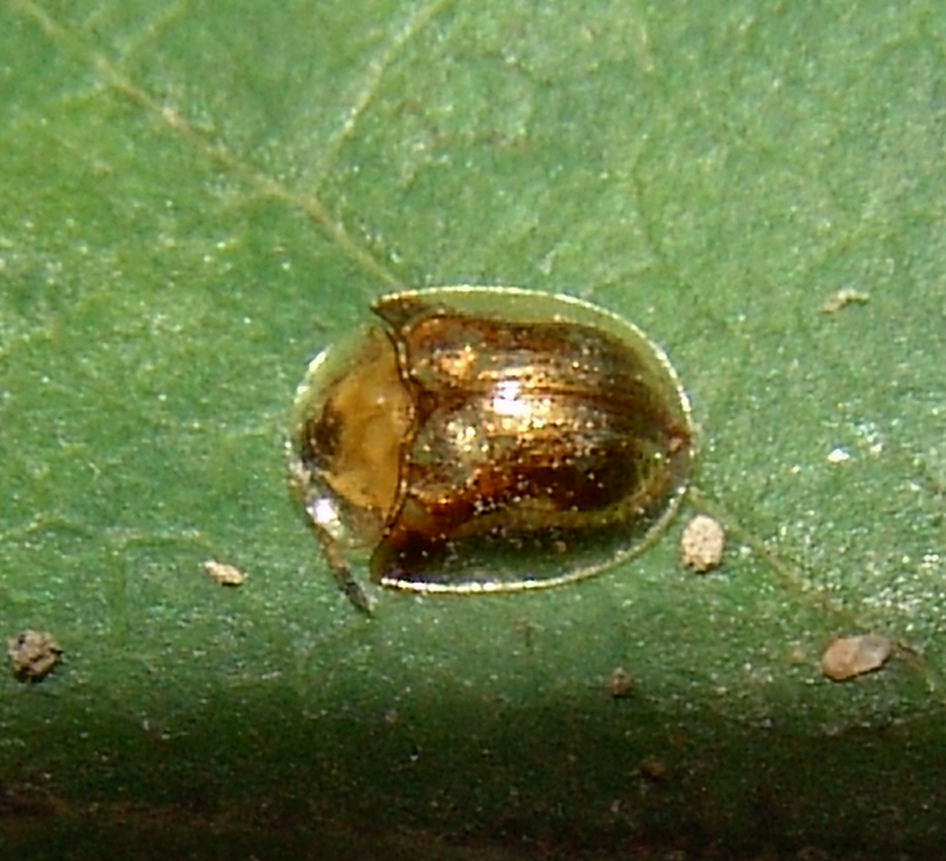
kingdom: Animalia
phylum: Arthropoda
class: Insecta
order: Coleoptera
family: Chrysomelidae
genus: Deloyala
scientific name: Deloyala guttata
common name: Mottled tortoise beetle
